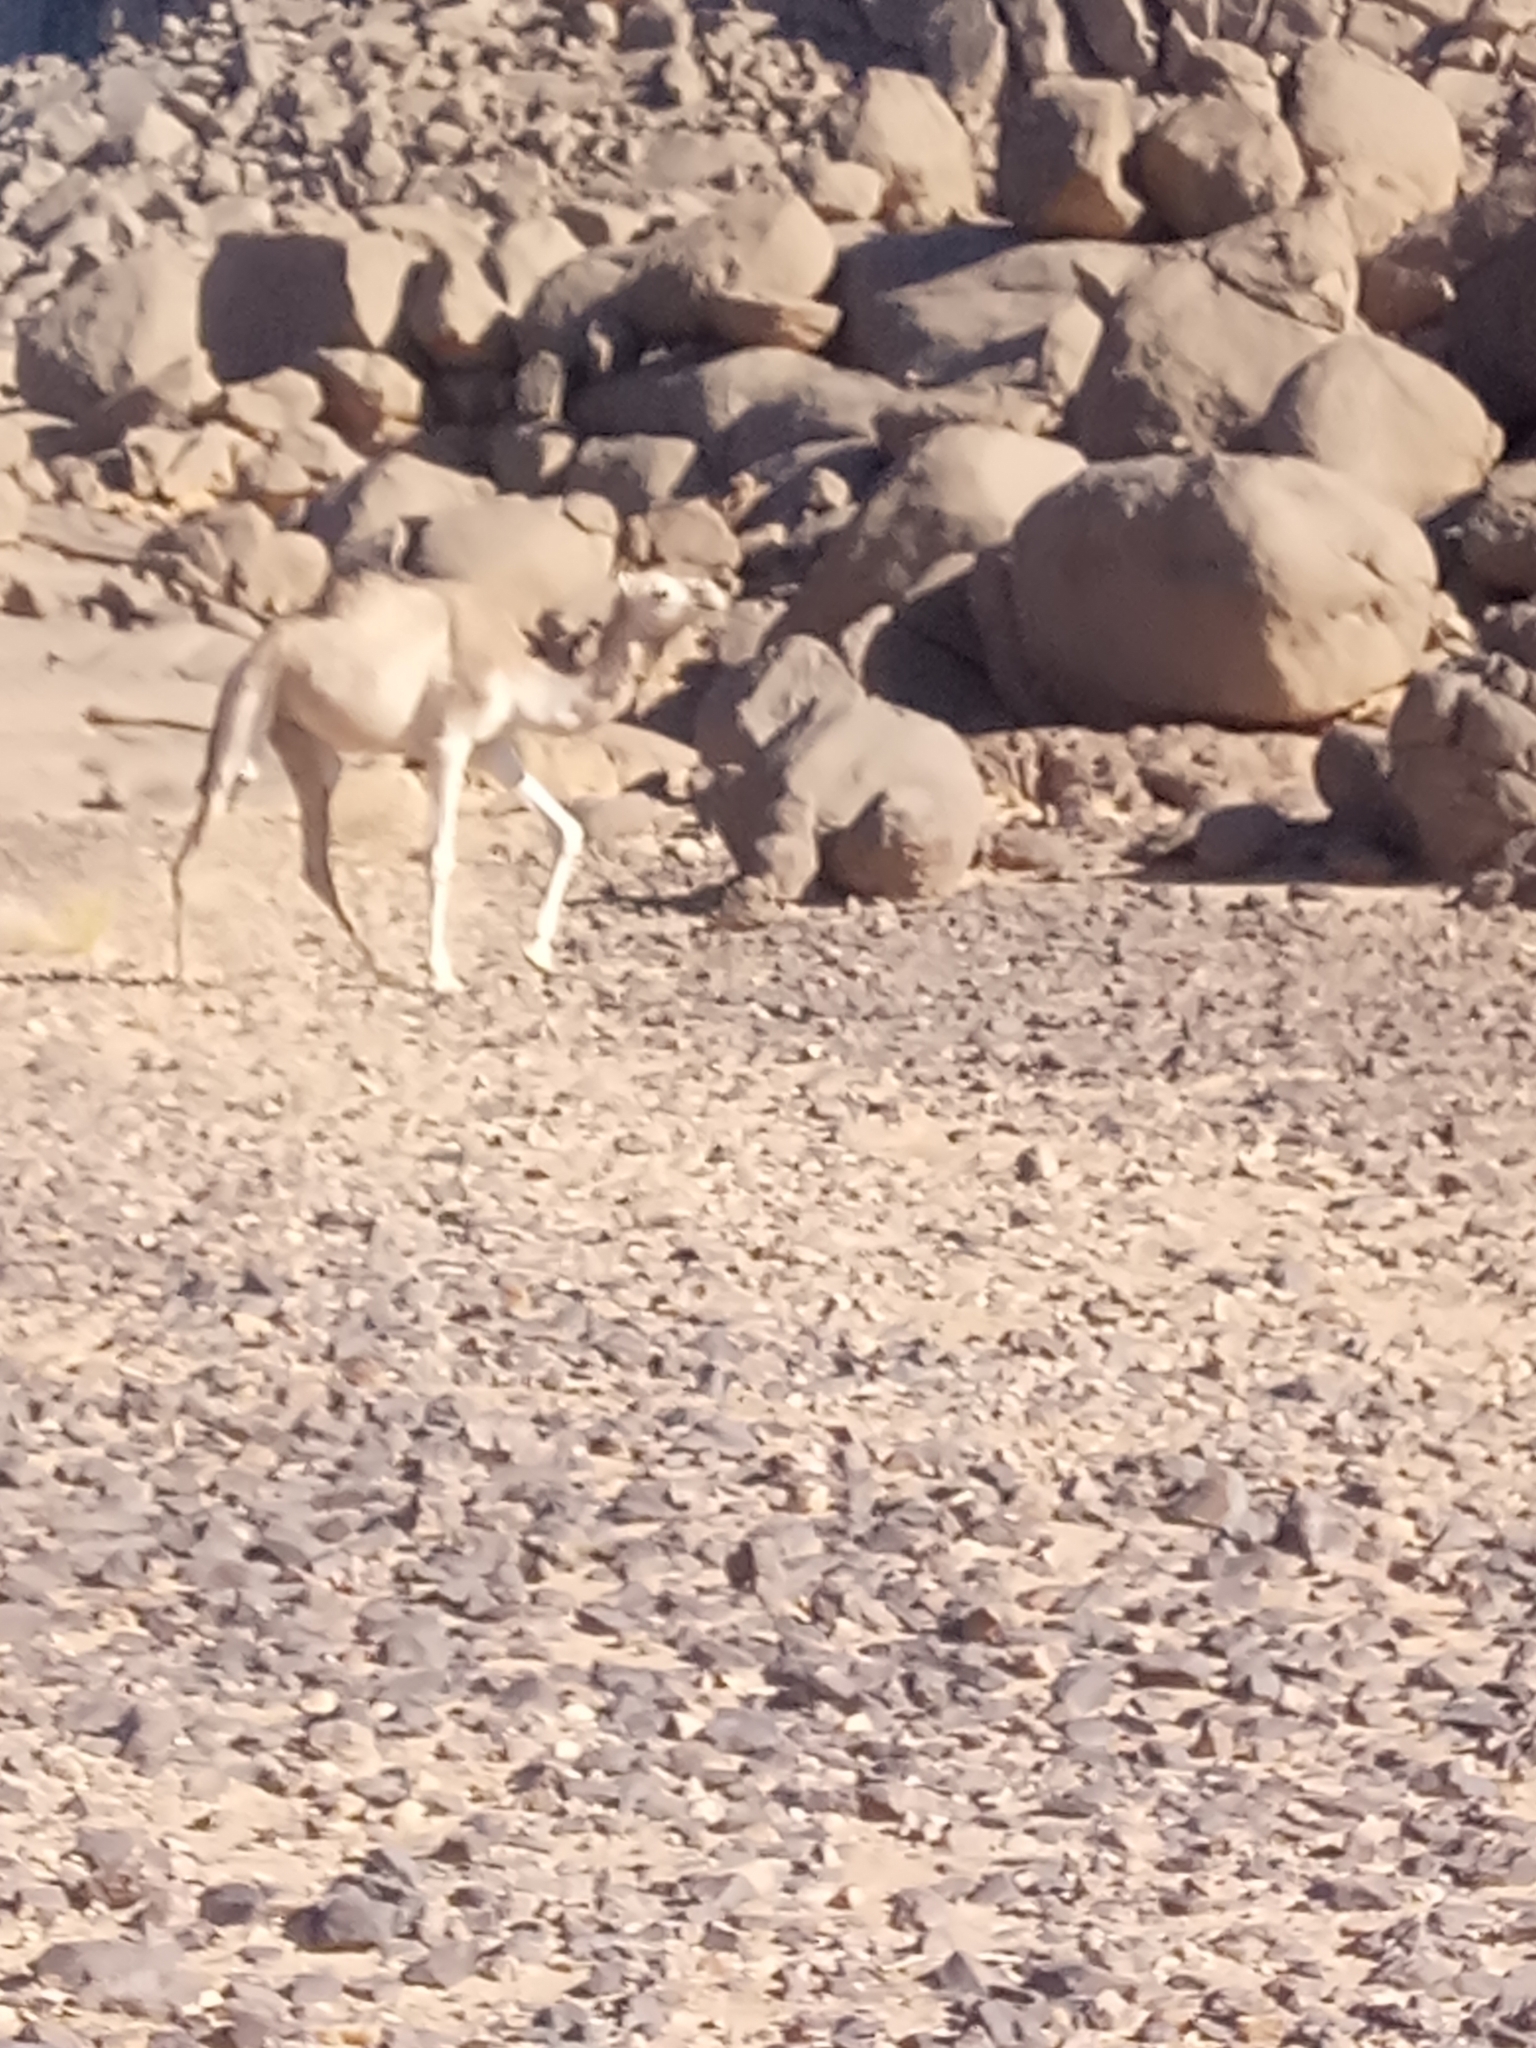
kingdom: Animalia
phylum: Chordata
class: Mammalia
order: Artiodactyla
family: Camelidae
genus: Camelus
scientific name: Camelus dromedarius
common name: One-humped camel
